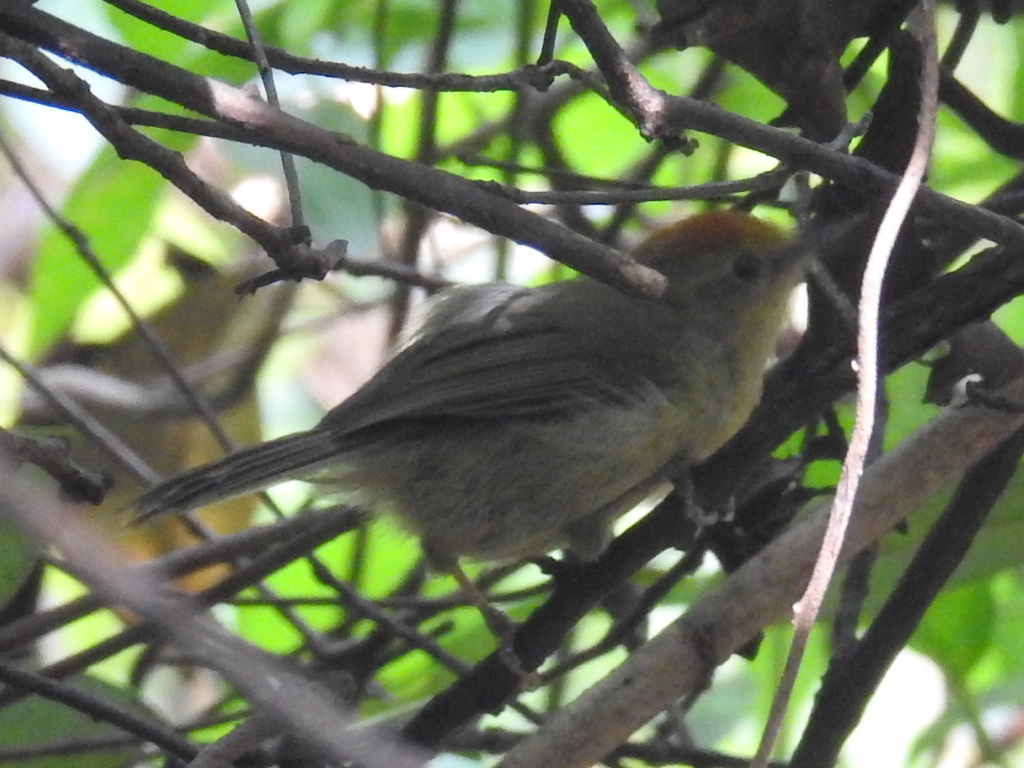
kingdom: Animalia
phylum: Chordata
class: Aves
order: Passeriformes
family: Timaliidae
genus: Stachyridopsis
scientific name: Stachyridopsis ruficeps
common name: Rufous-capped babbler
